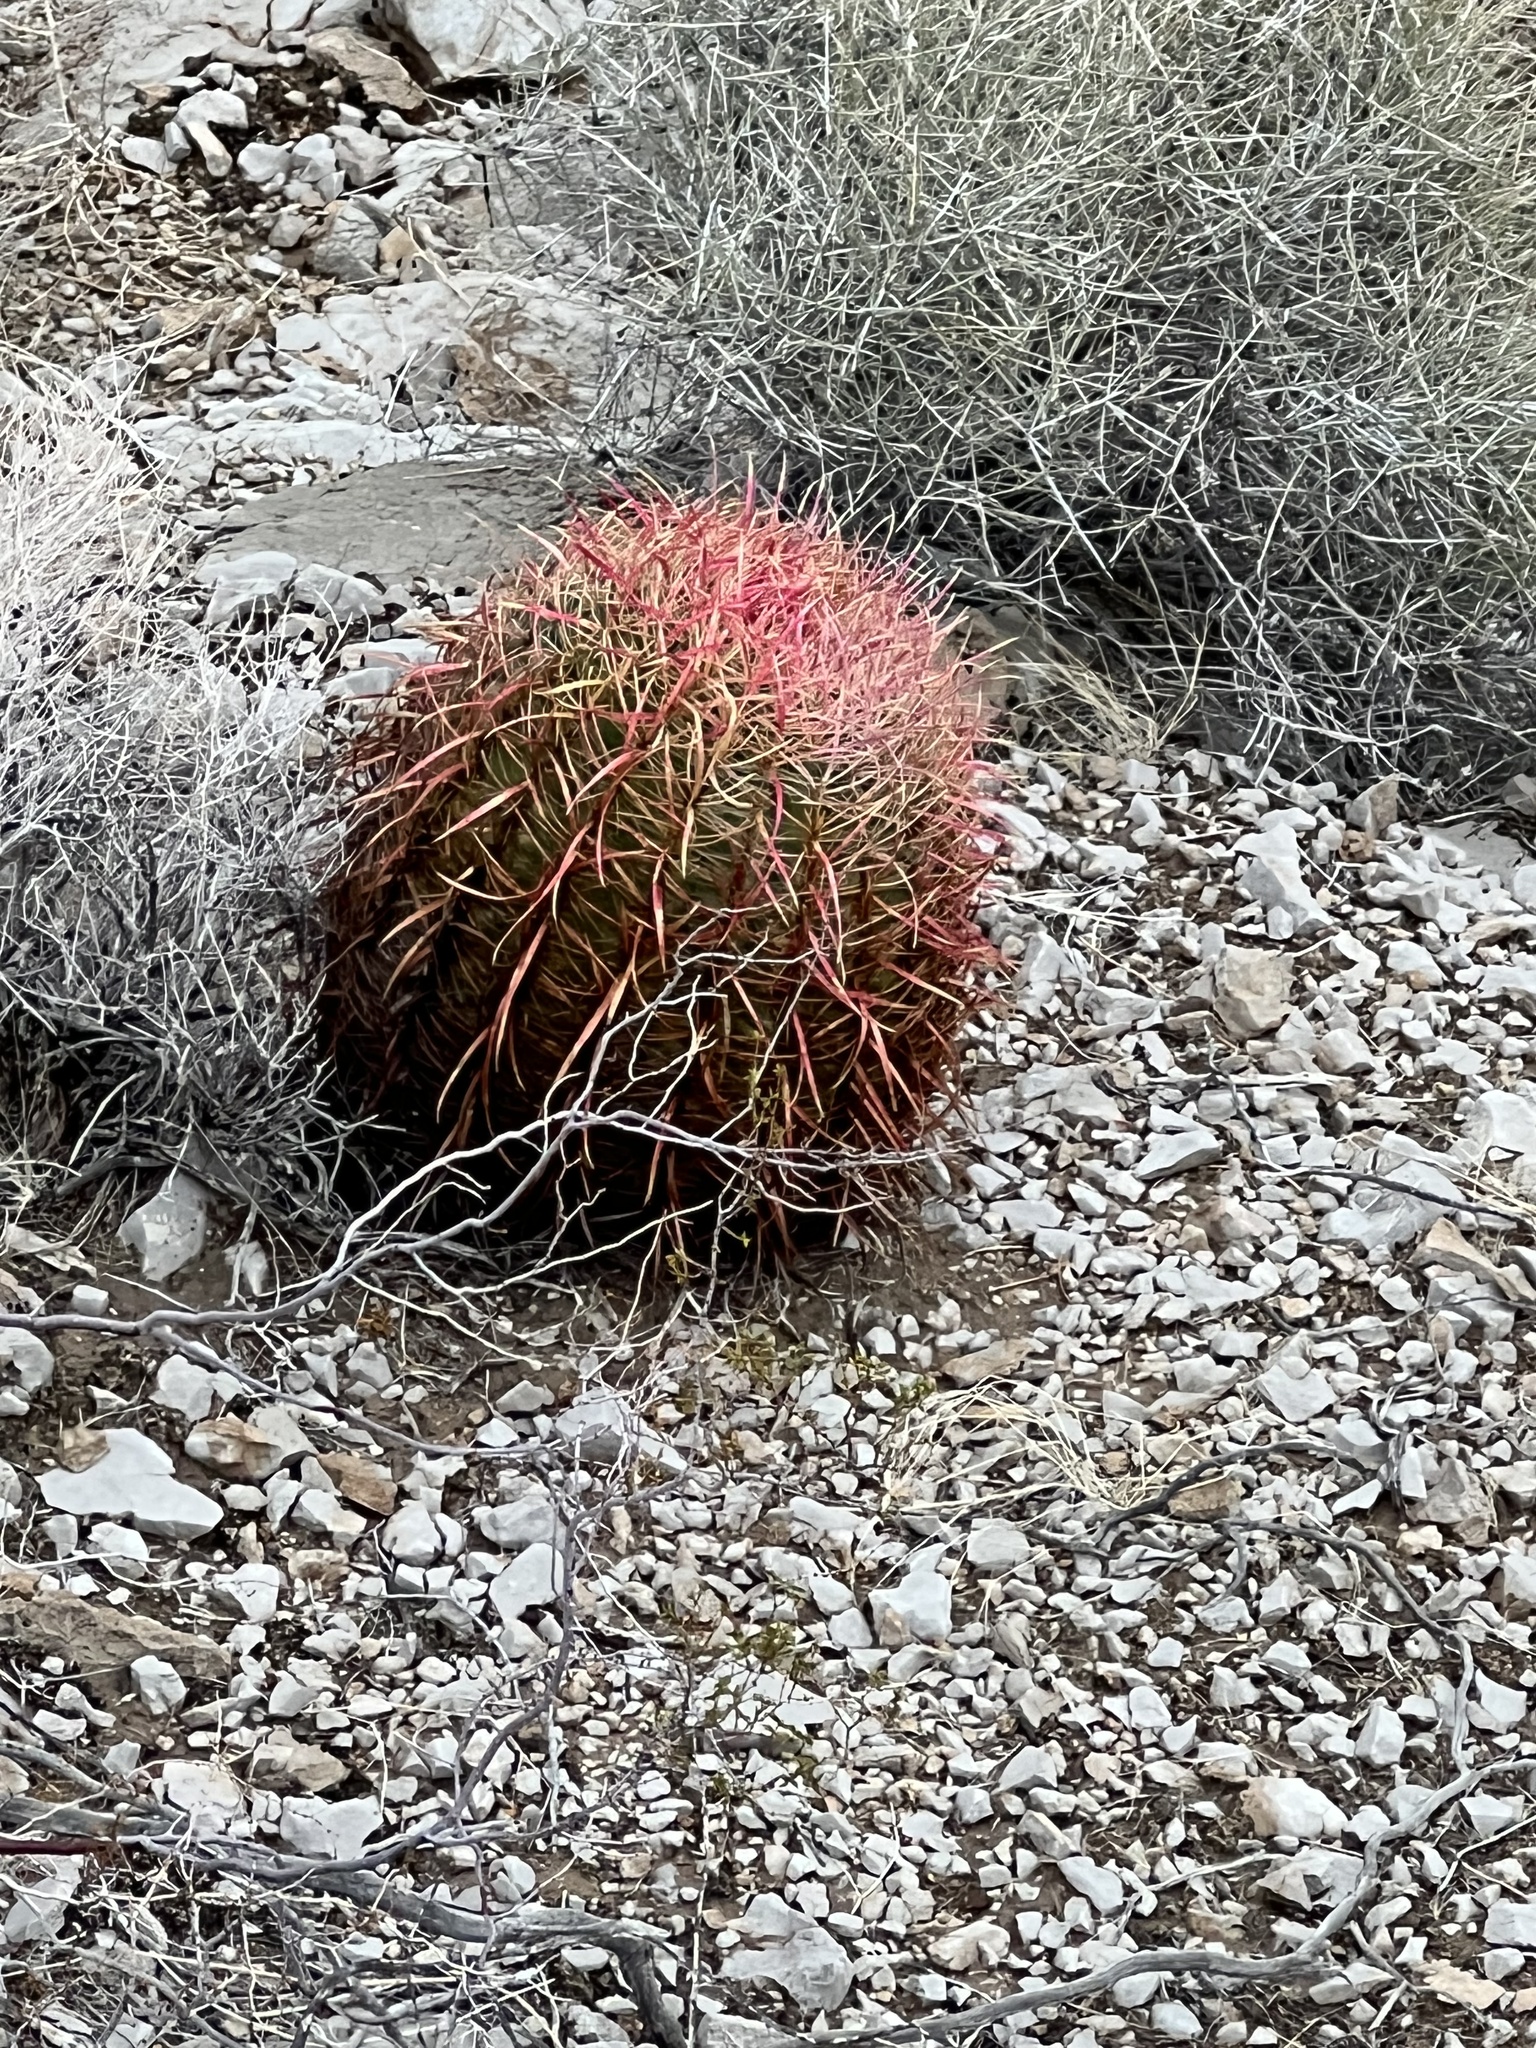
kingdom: Plantae
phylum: Tracheophyta
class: Magnoliopsida
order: Caryophyllales
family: Cactaceae
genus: Ferocactus
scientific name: Ferocactus cylindraceus
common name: California barrel cactus
